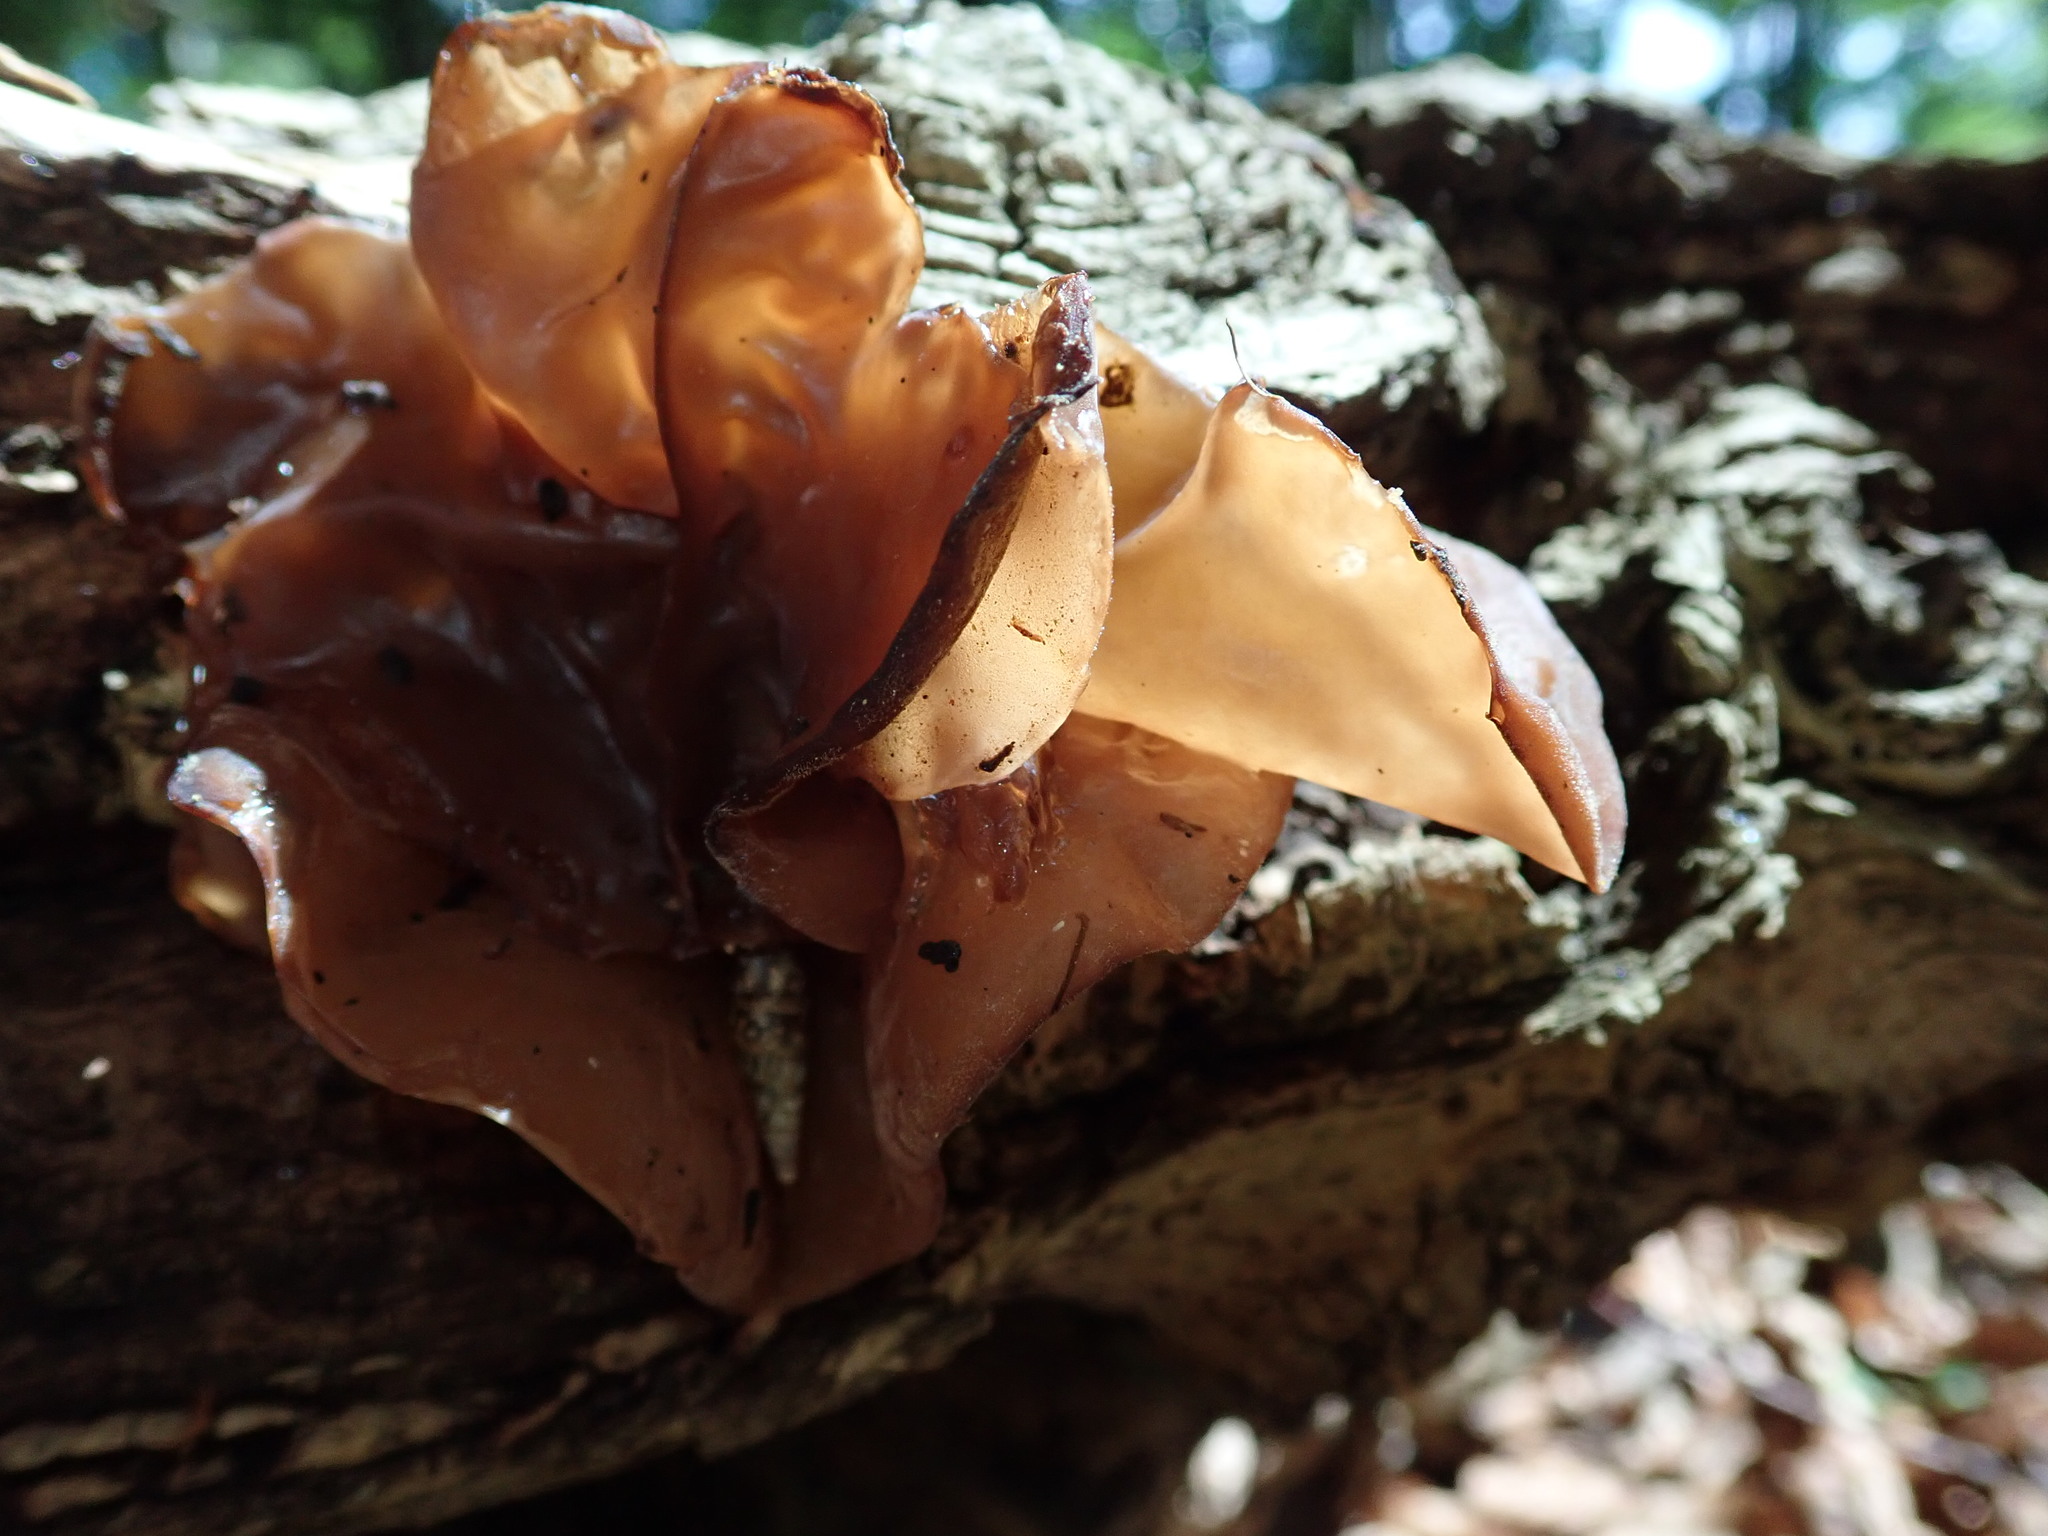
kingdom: Fungi
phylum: Basidiomycota
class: Agaricomycetes
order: Auriculariales
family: Auriculariaceae
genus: Auricularia
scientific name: Auricularia auricula-judae
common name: Jelly ear
